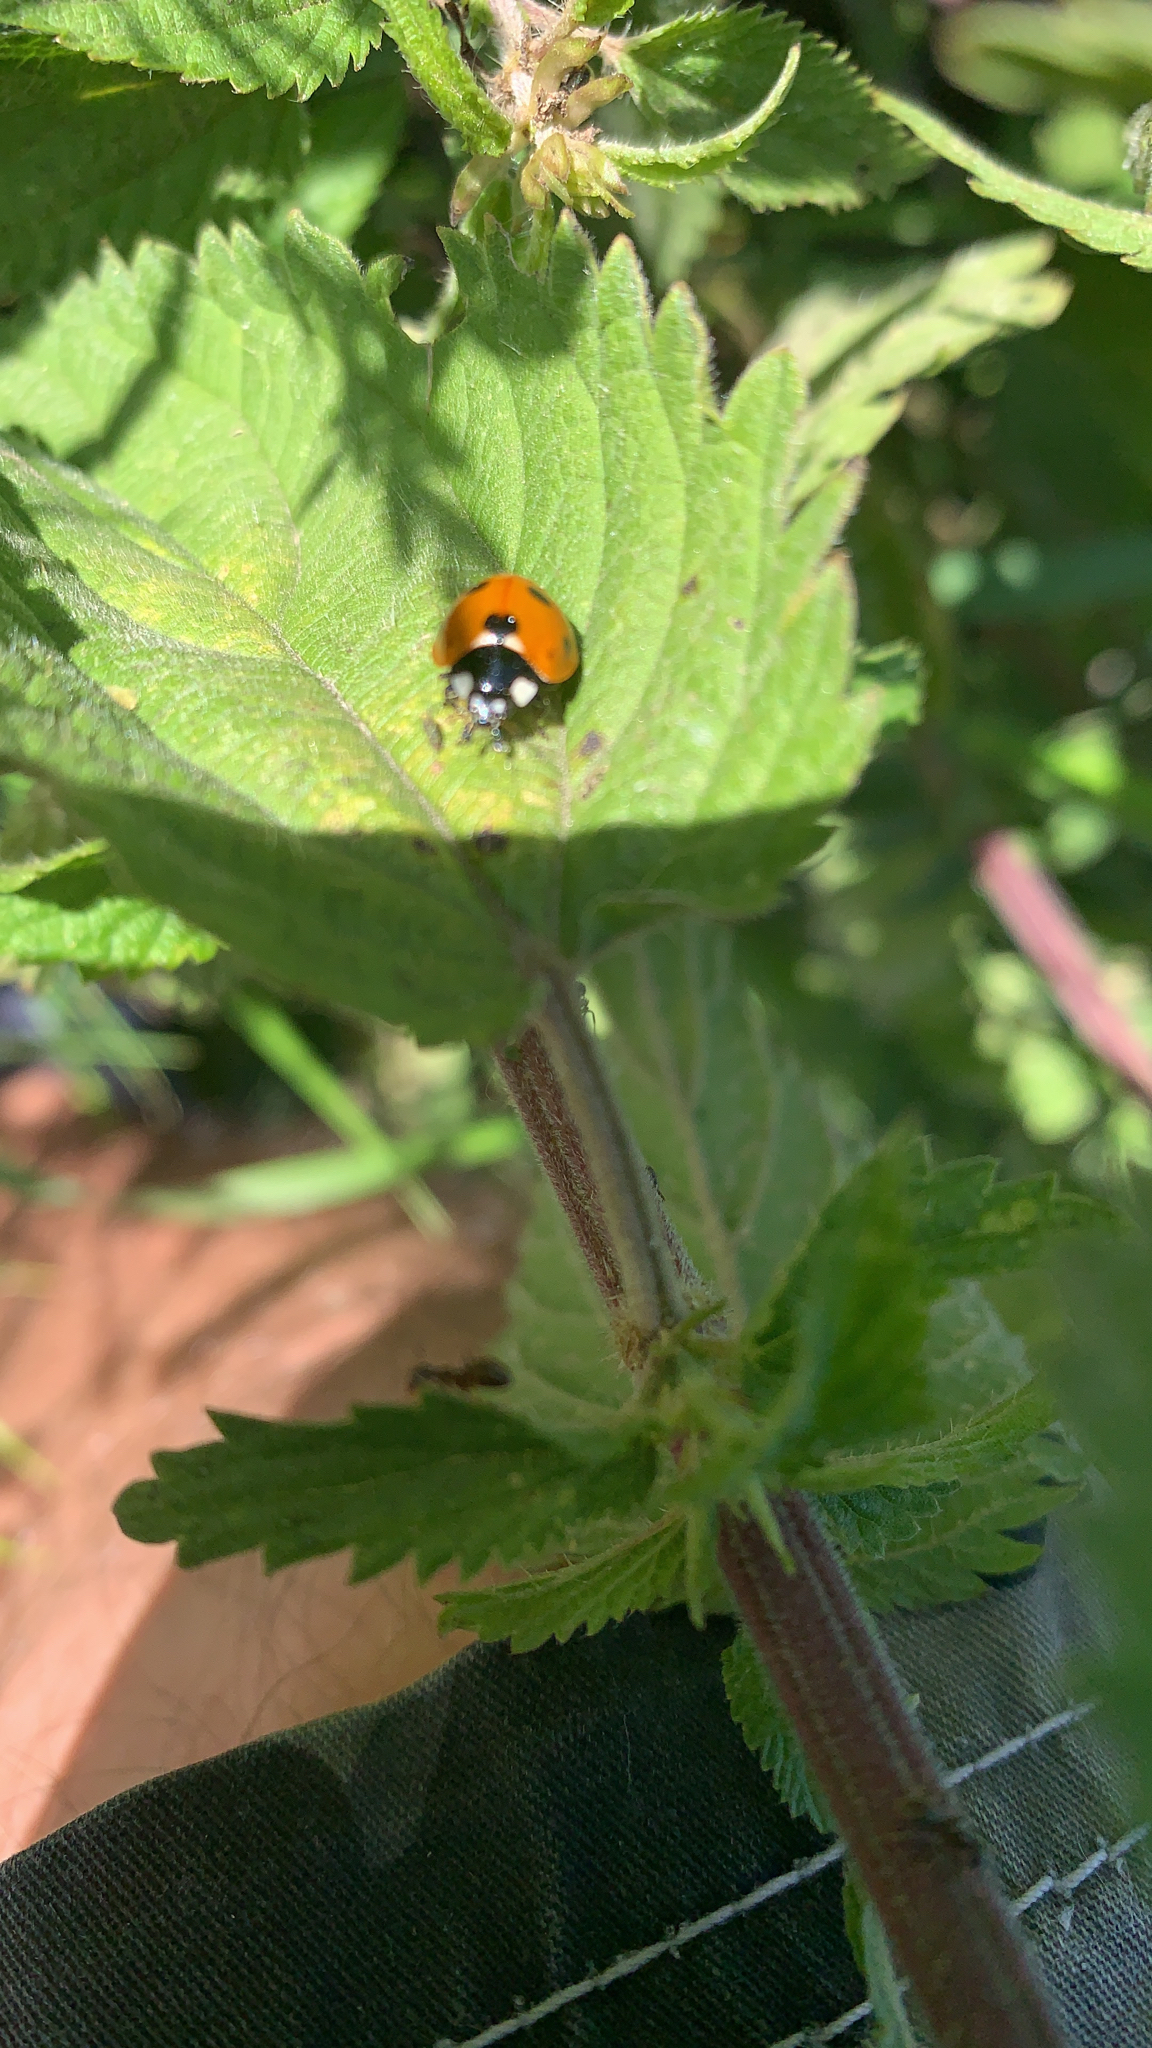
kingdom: Animalia
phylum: Arthropoda
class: Insecta
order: Coleoptera
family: Coccinellidae
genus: Coccinella
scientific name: Coccinella septempunctata
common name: Sevenspotted lady beetle
